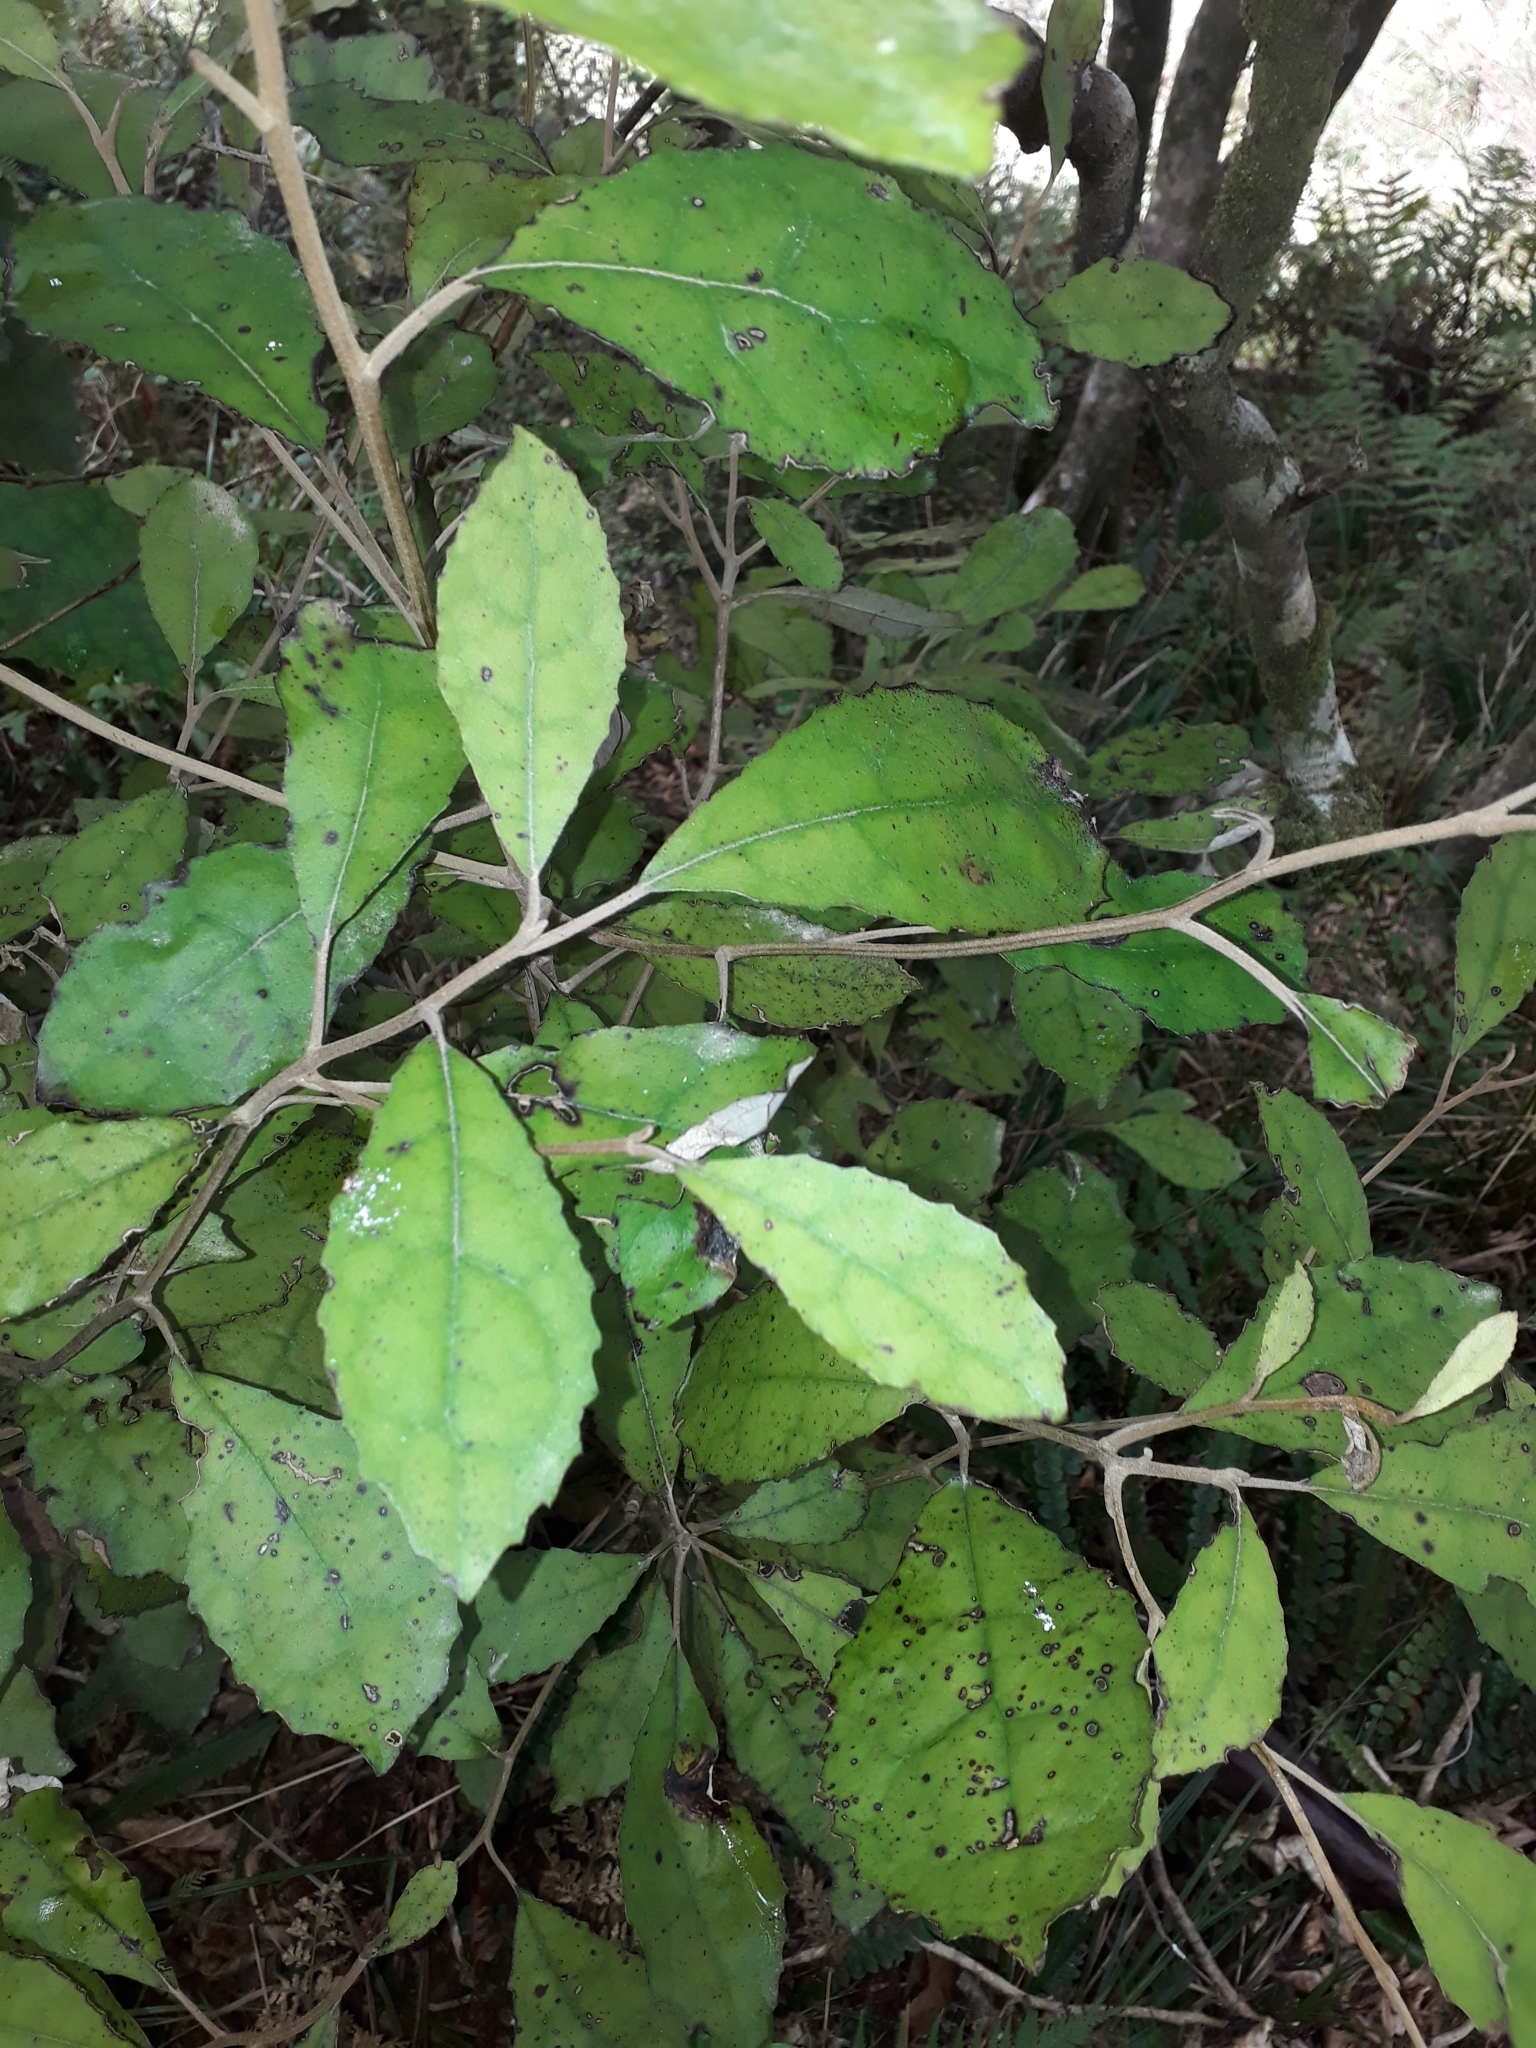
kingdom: Plantae
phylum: Tracheophyta
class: Magnoliopsida
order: Asterales
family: Asteraceae
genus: Olearia
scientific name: Olearia rani
